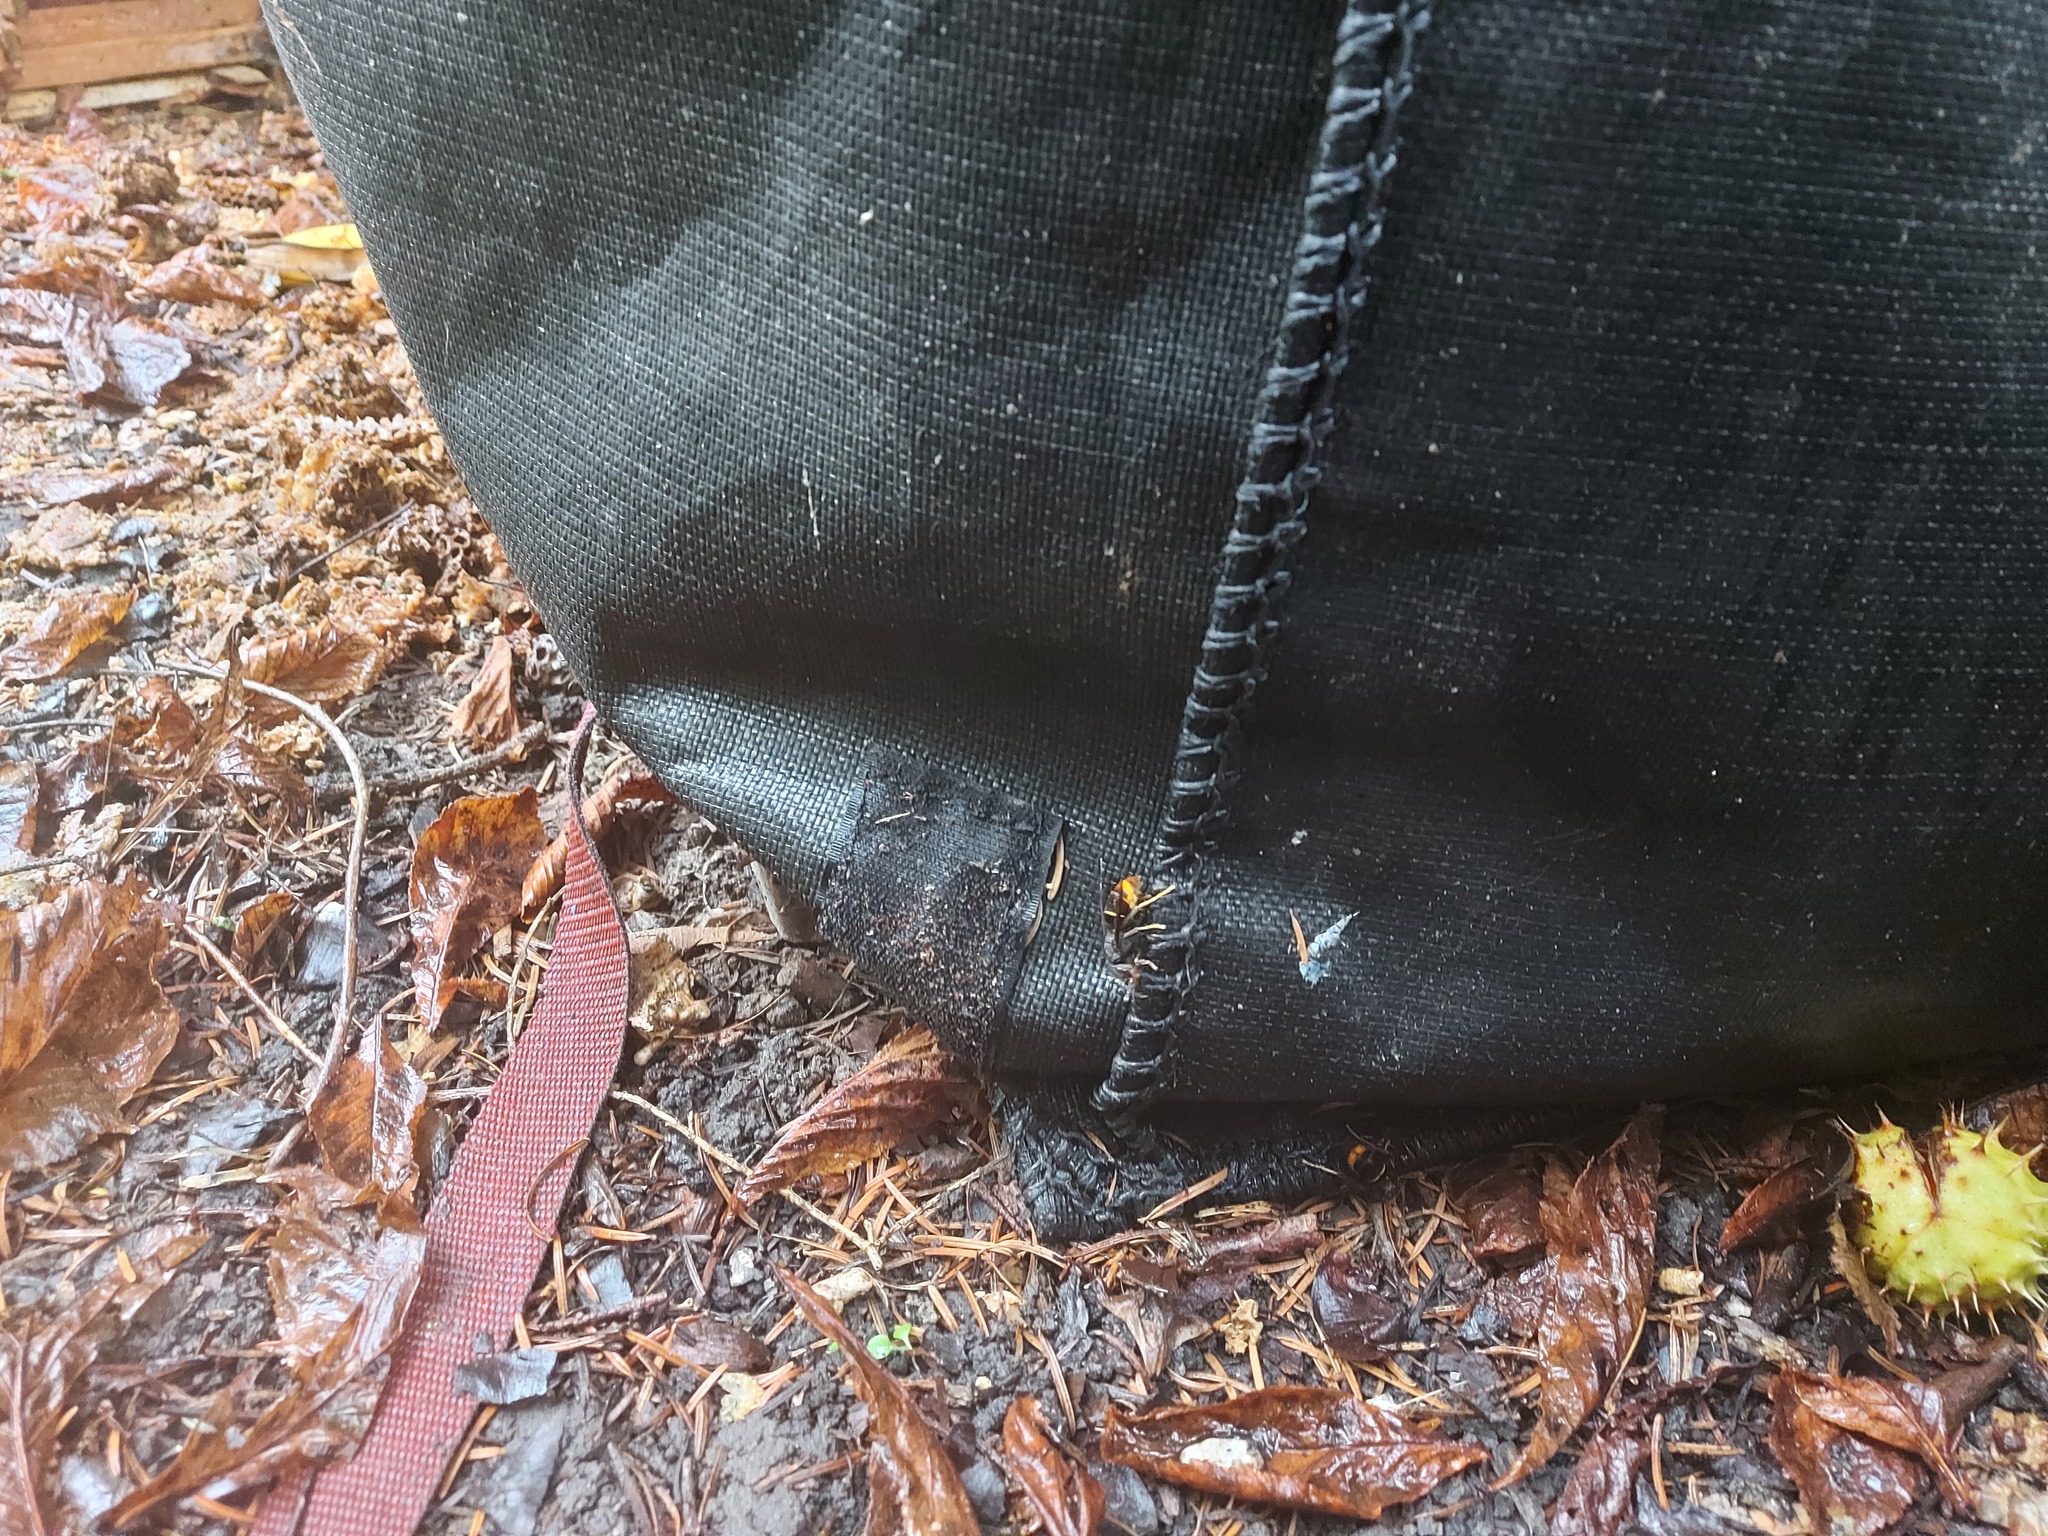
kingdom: Animalia
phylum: Arthropoda
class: Insecta
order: Hymenoptera
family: Vespidae
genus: Vespa
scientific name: Vespa velutina
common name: Asian hornet
